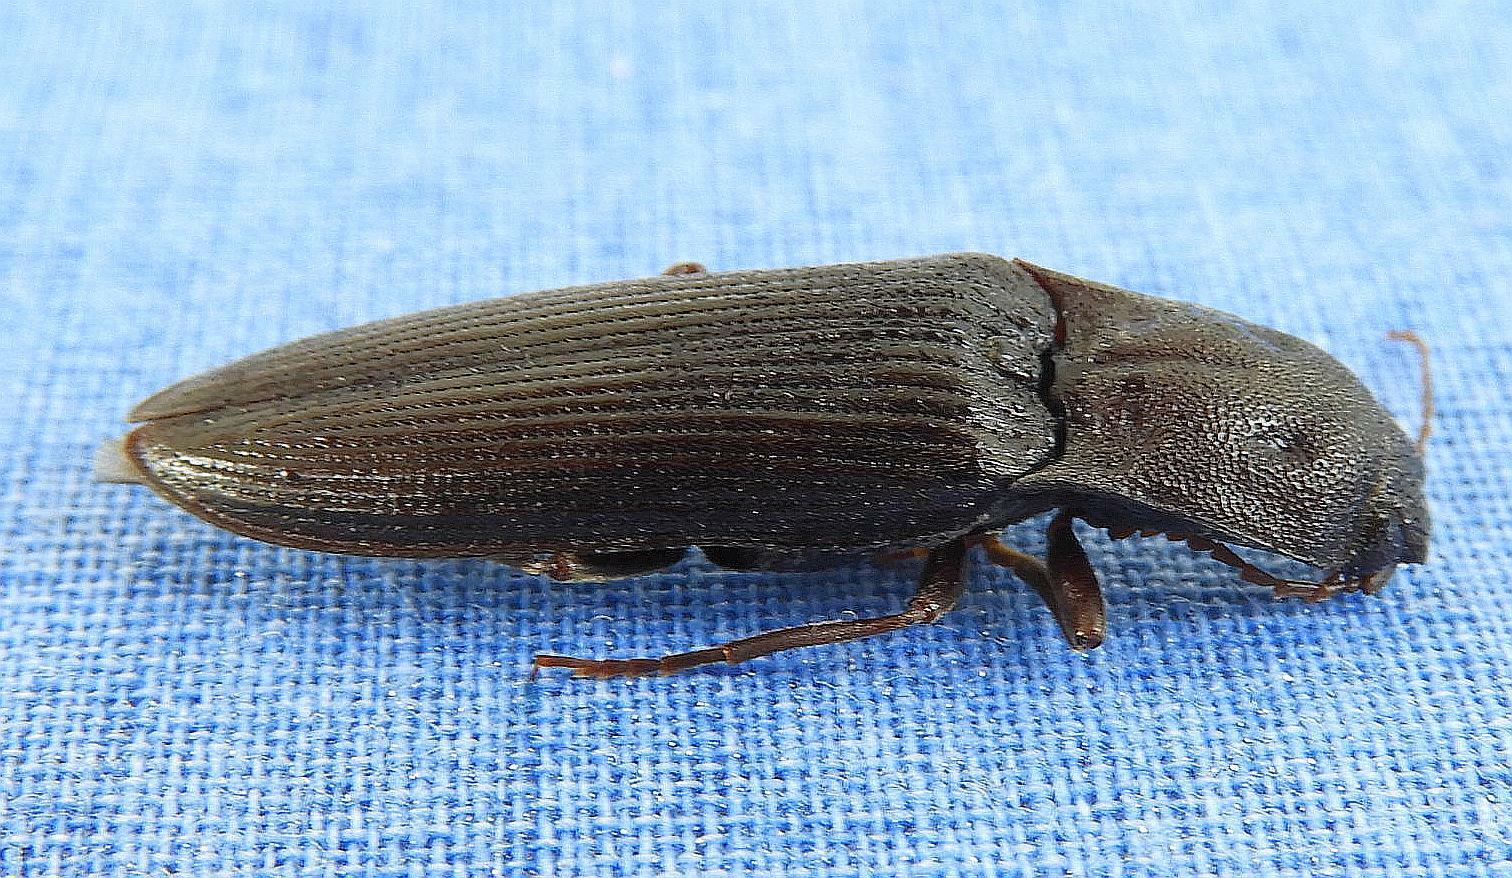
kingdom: Animalia
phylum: Arthropoda
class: Insecta
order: Coleoptera
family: Elateridae
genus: Pityobius
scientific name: Pityobius anguinus
